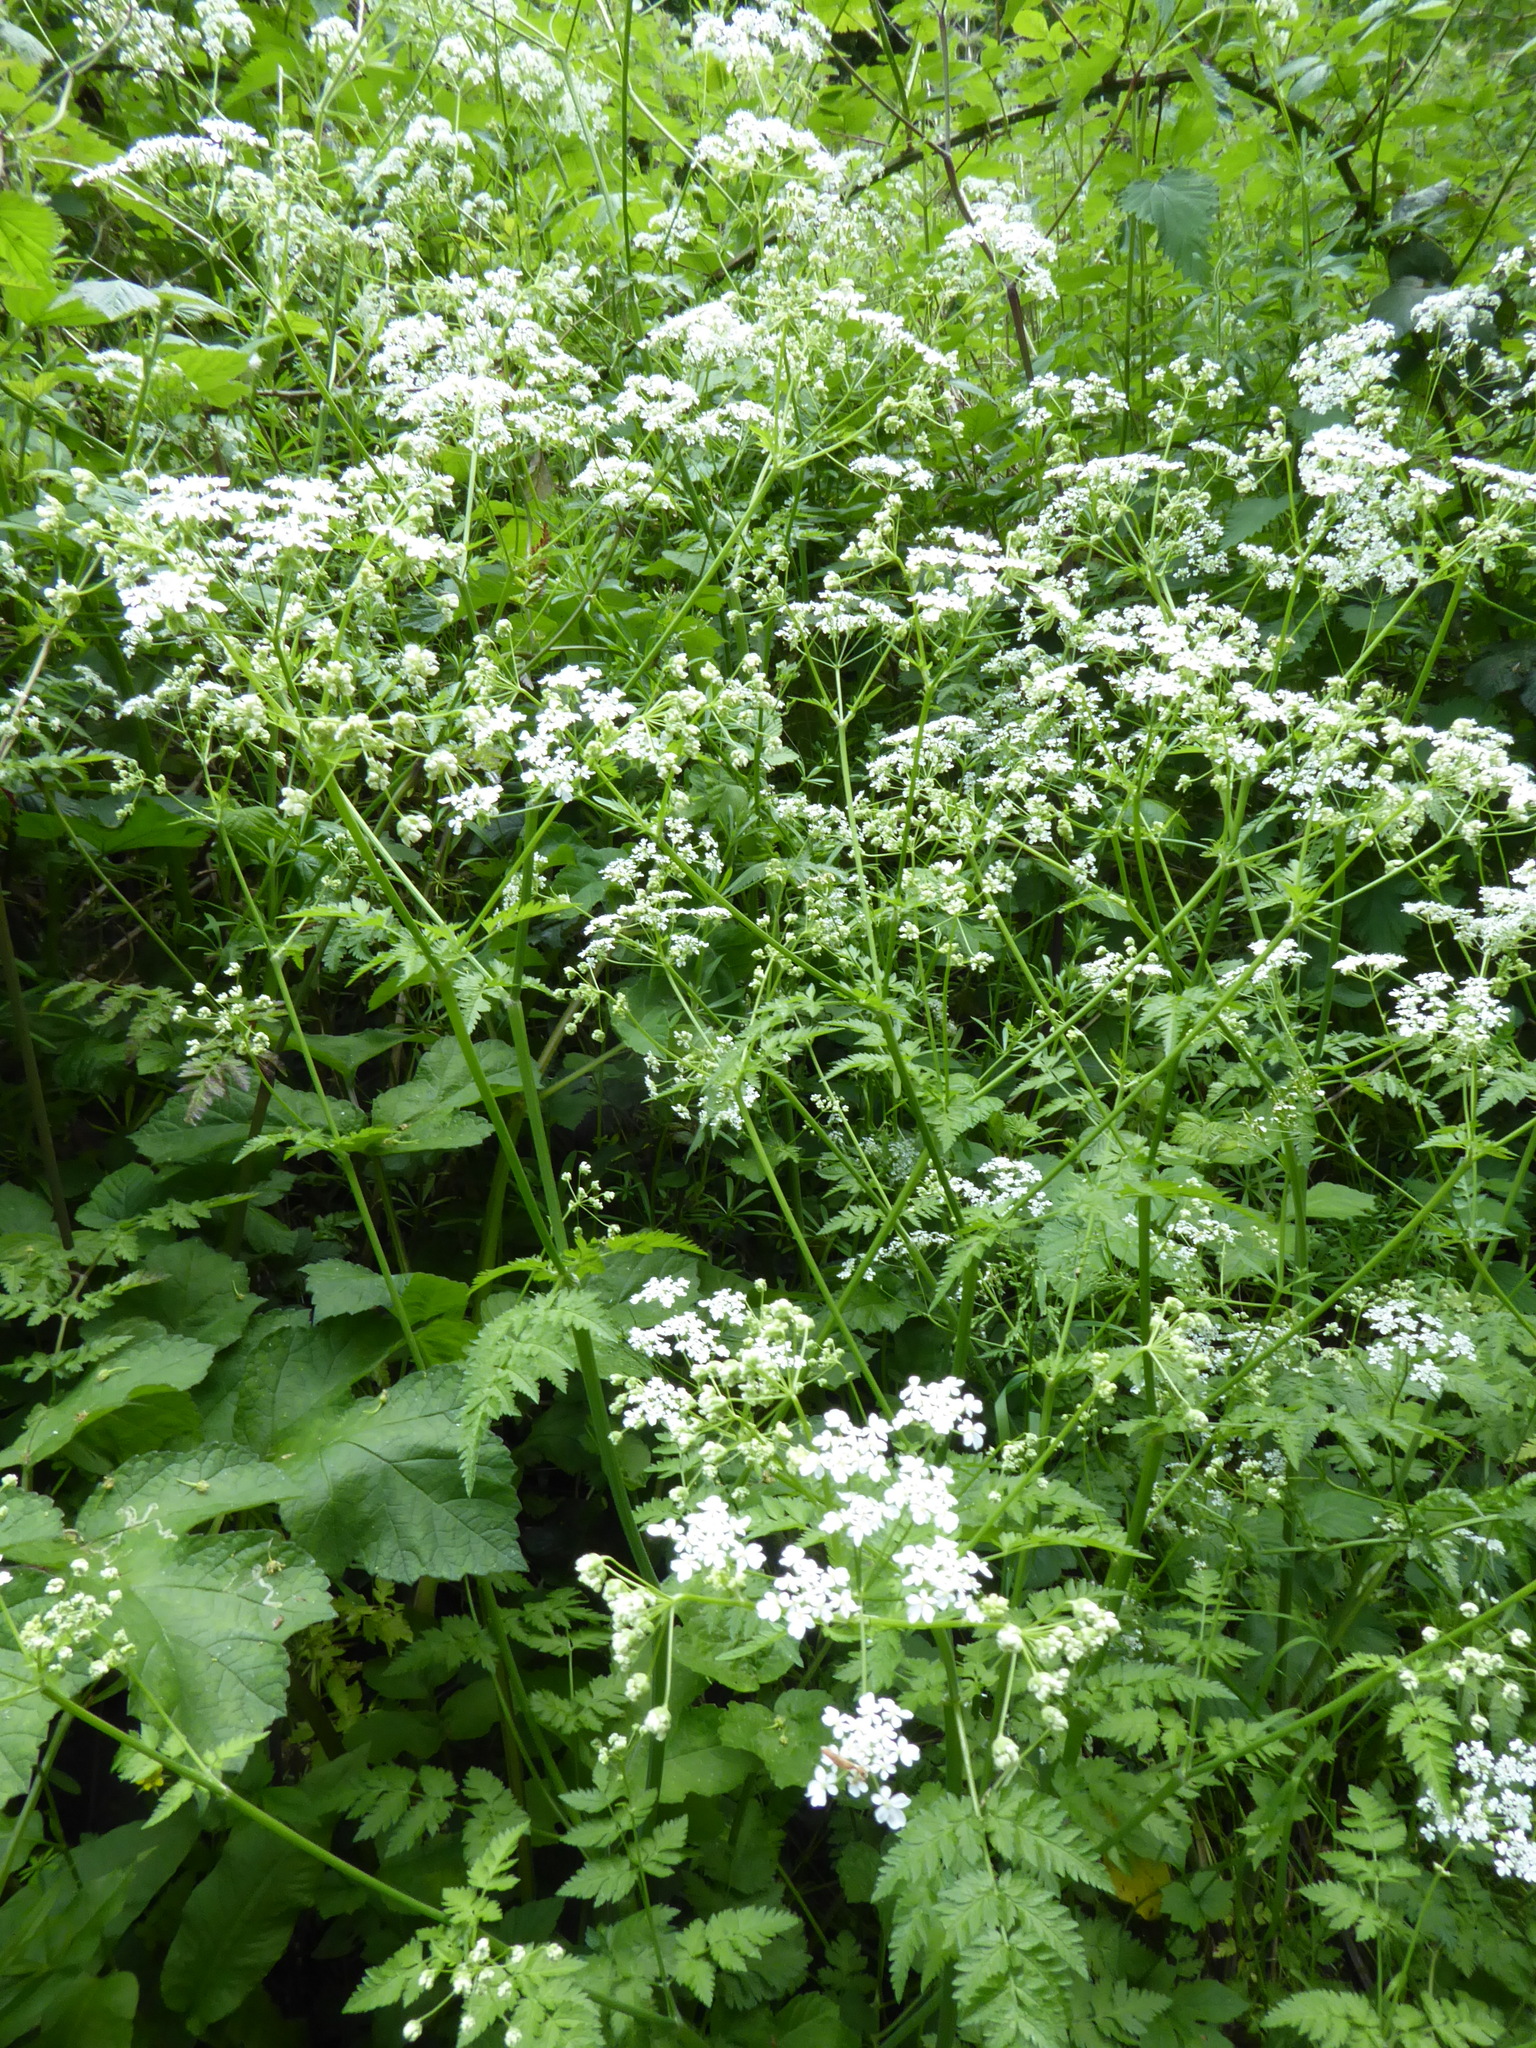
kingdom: Plantae
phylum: Tracheophyta
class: Magnoliopsida
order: Apiales
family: Apiaceae
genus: Anthriscus
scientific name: Anthriscus sylvestris
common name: Cow parsley
